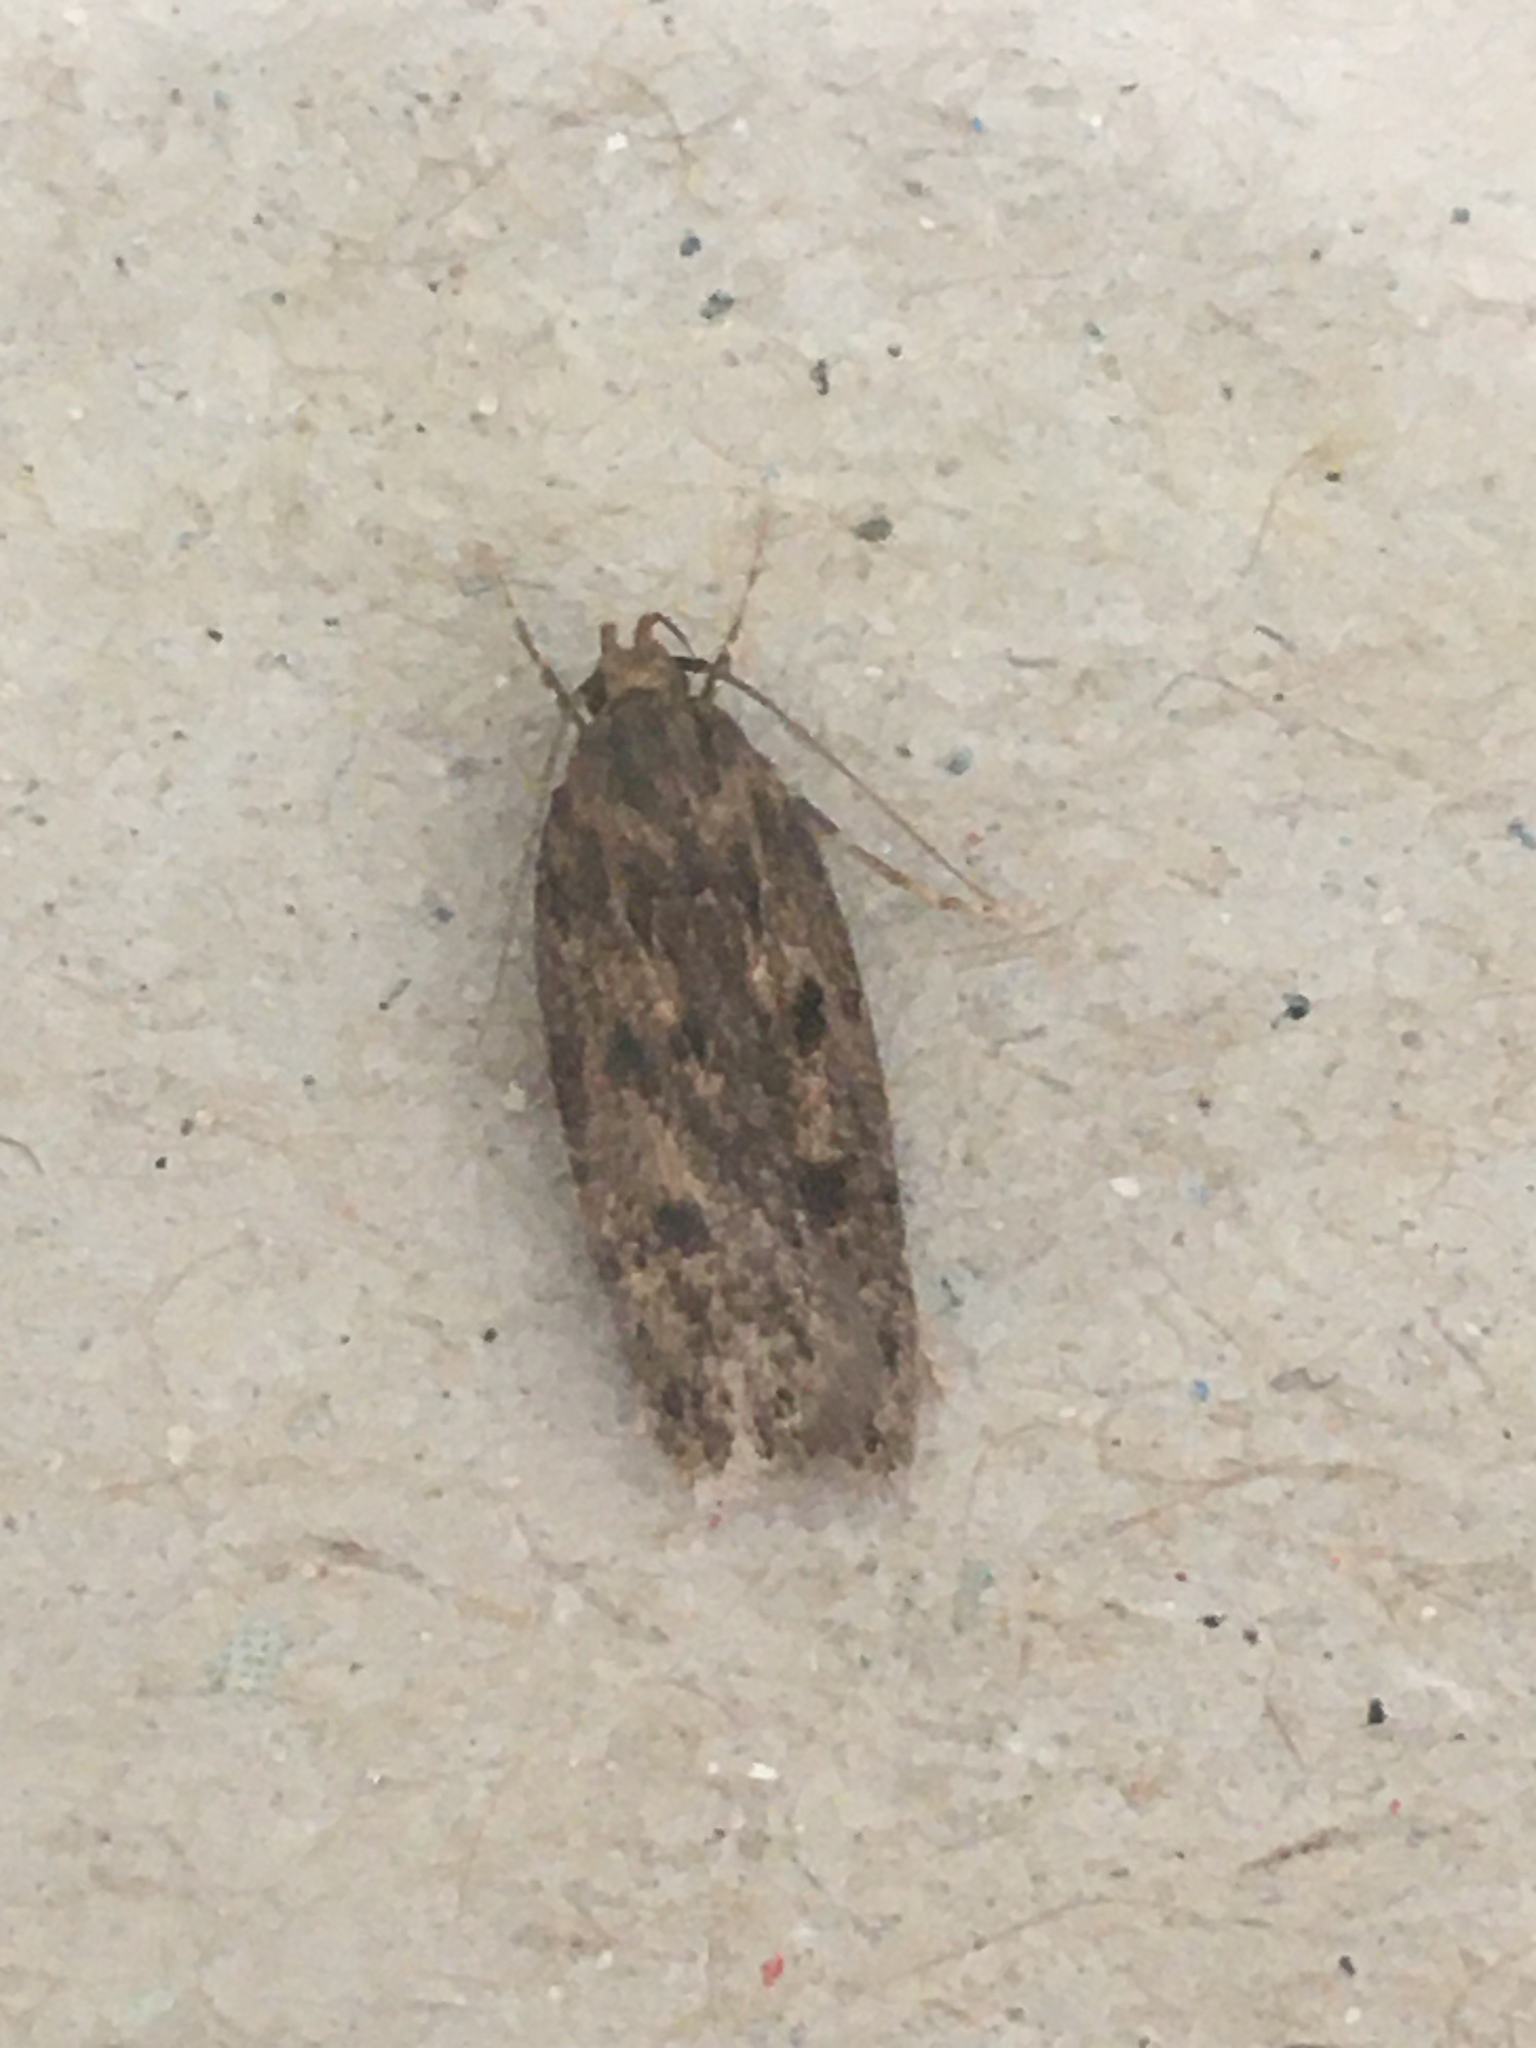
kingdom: Animalia
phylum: Arthropoda
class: Insecta
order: Lepidoptera
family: Oecophoridae
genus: Hofmannophila
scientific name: Hofmannophila pseudospretella
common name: Brown house moth
